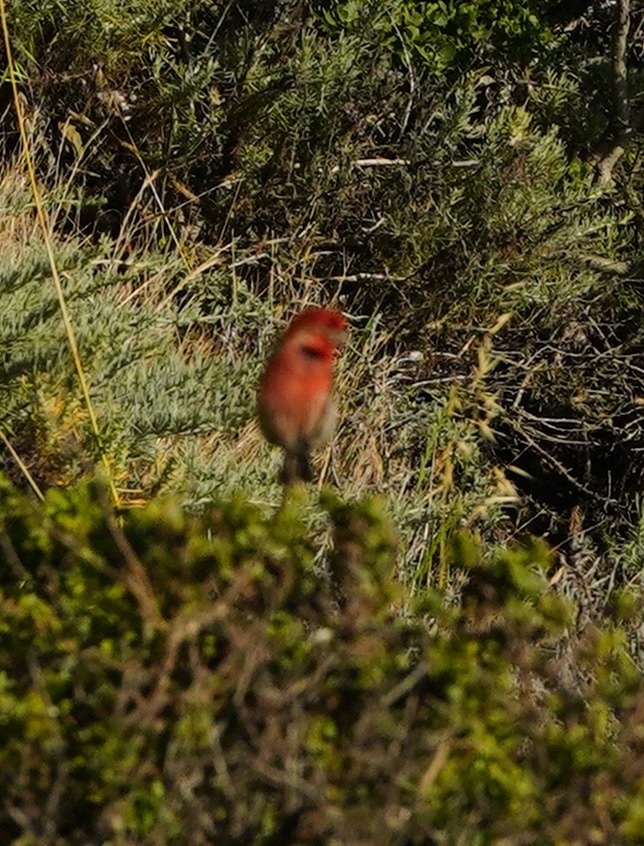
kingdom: Animalia
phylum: Chordata
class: Aves
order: Passeriformes
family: Fringillidae
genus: Haemorhous
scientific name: Haemorhous mexicanus
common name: House finch
